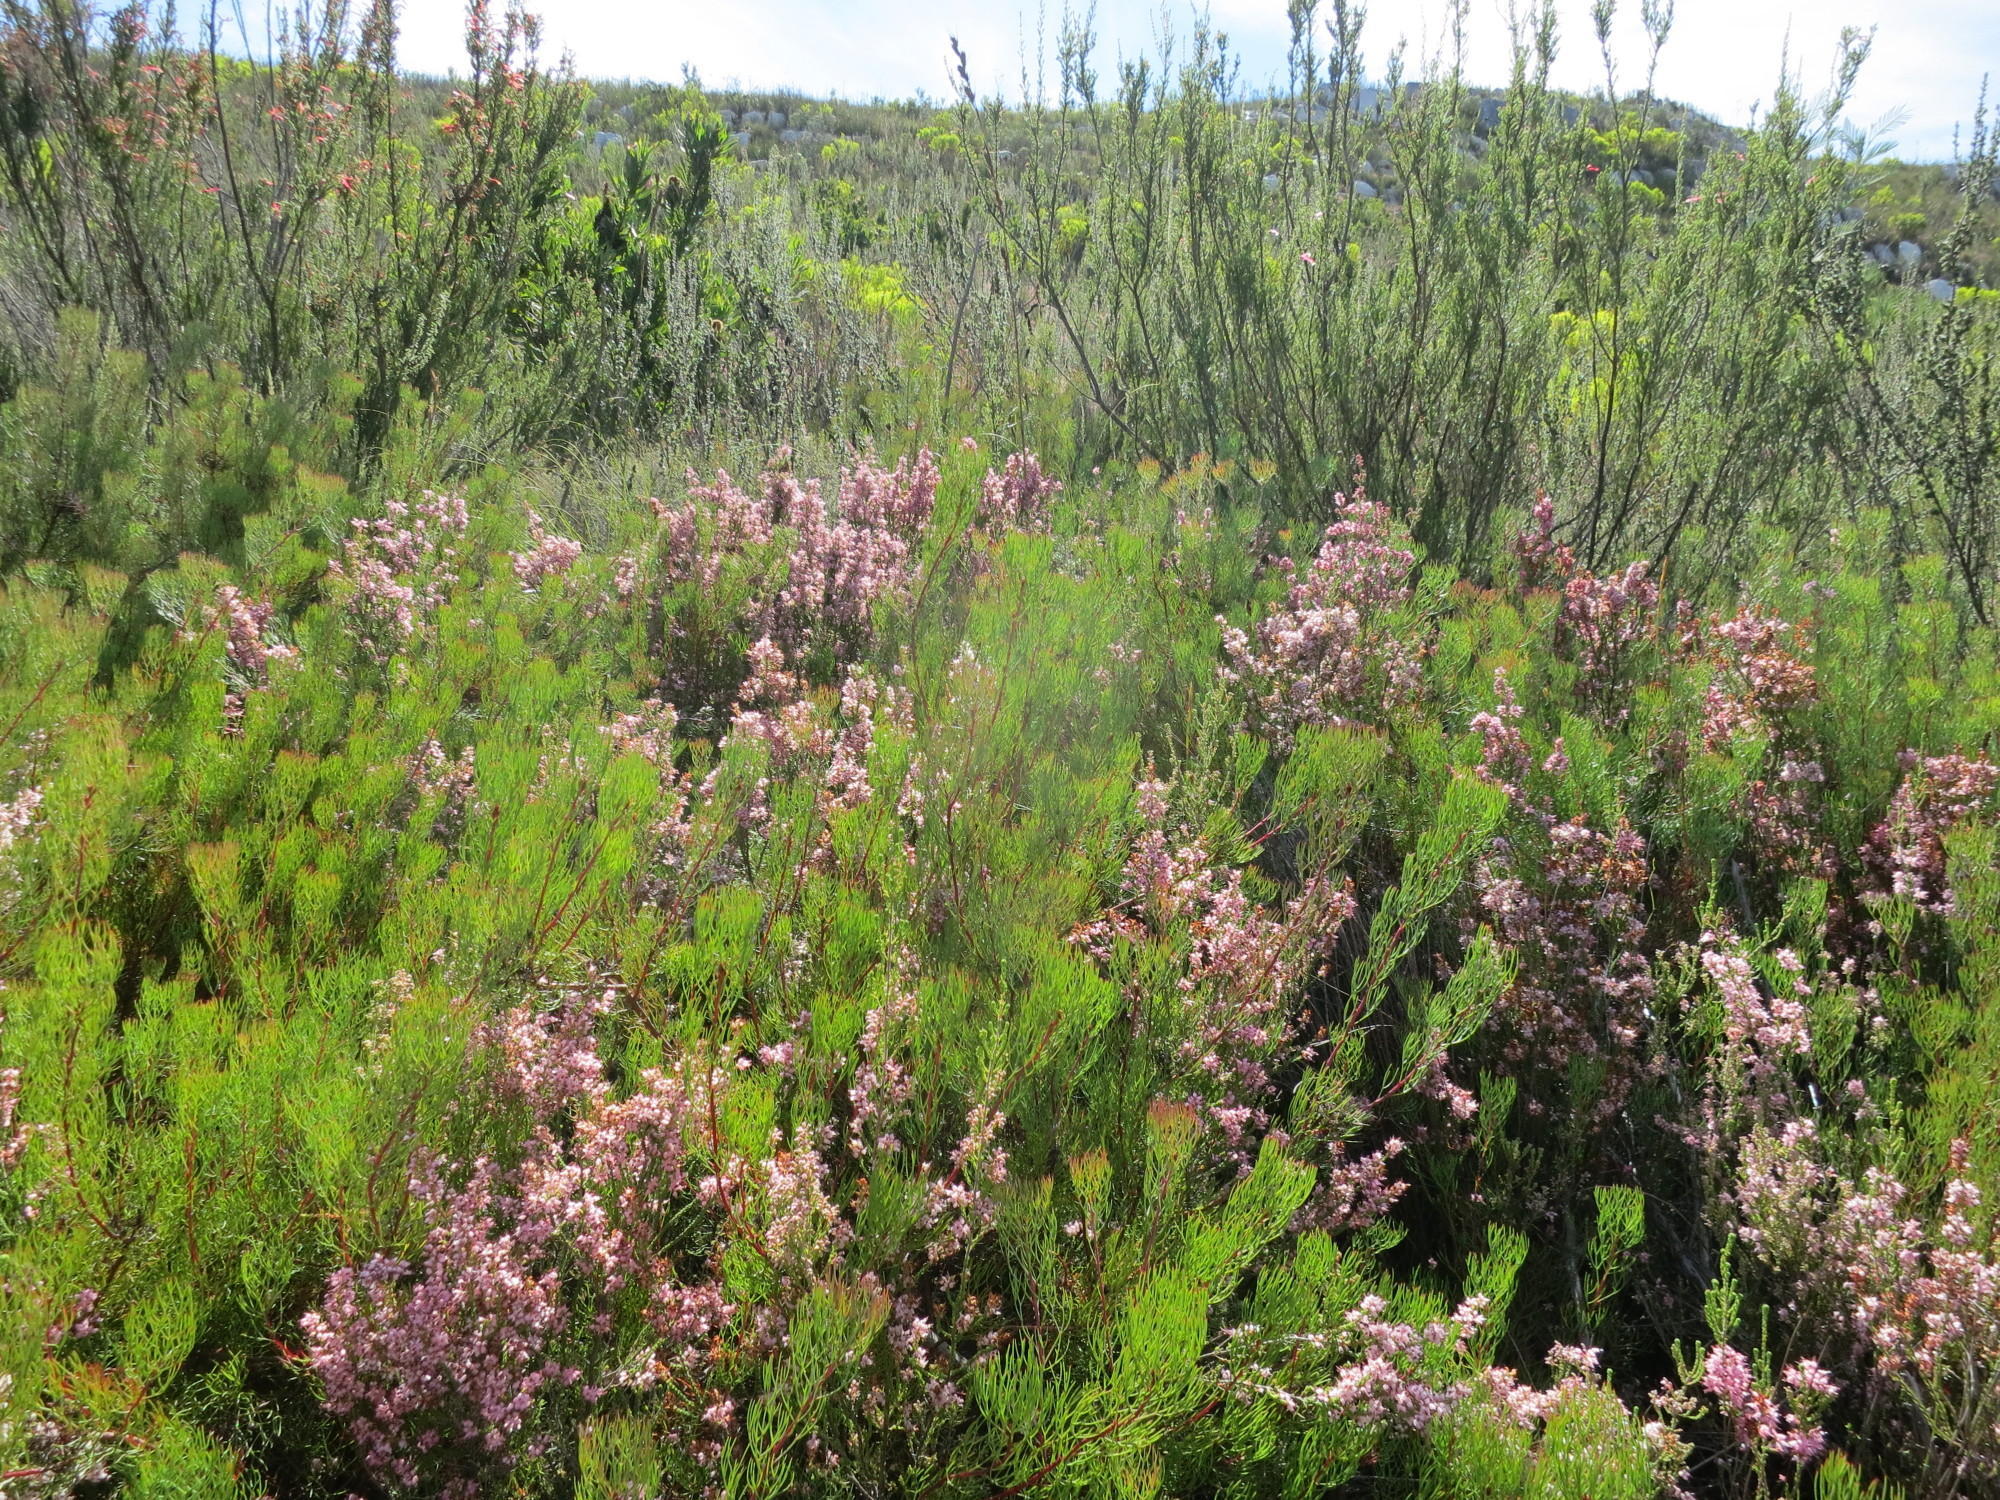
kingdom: Plantae
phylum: Tracheophyta
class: Magnoliopsida
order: Proteales
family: Proteaceae
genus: Serruria
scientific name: Serruria fasciflora
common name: Common pin spiderhead
